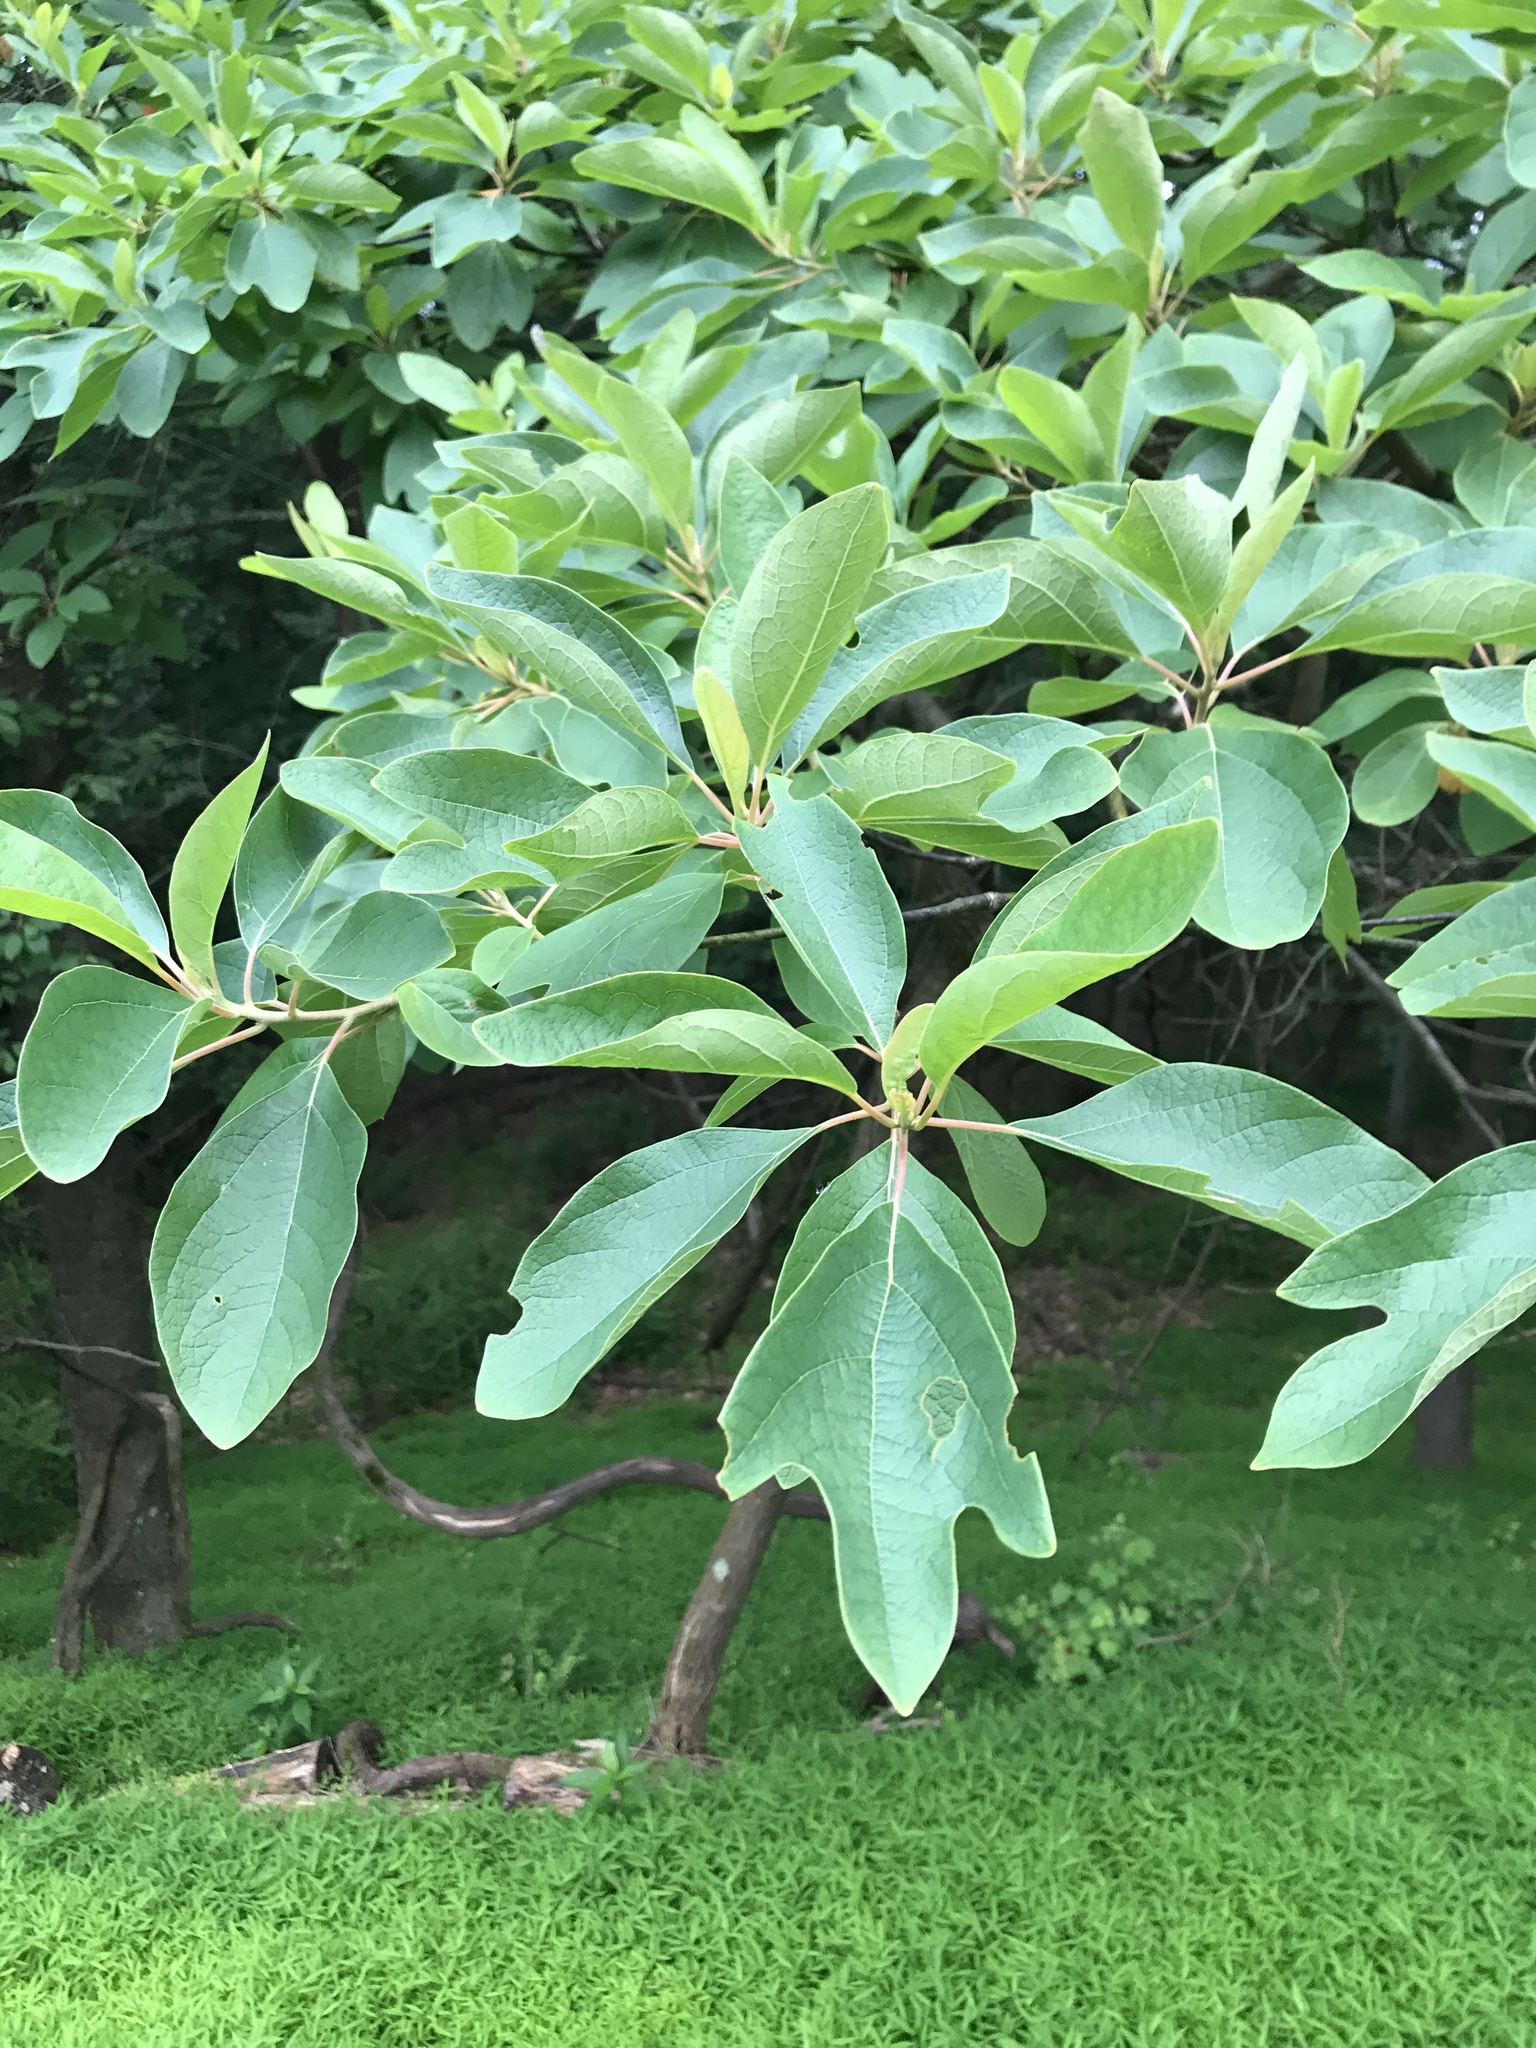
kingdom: Plantae
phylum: Tracheophyta
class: Magnoliopsida
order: Laurales
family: Lauraceae
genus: Sassafras
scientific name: Sassafras albidum
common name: Sassafras
